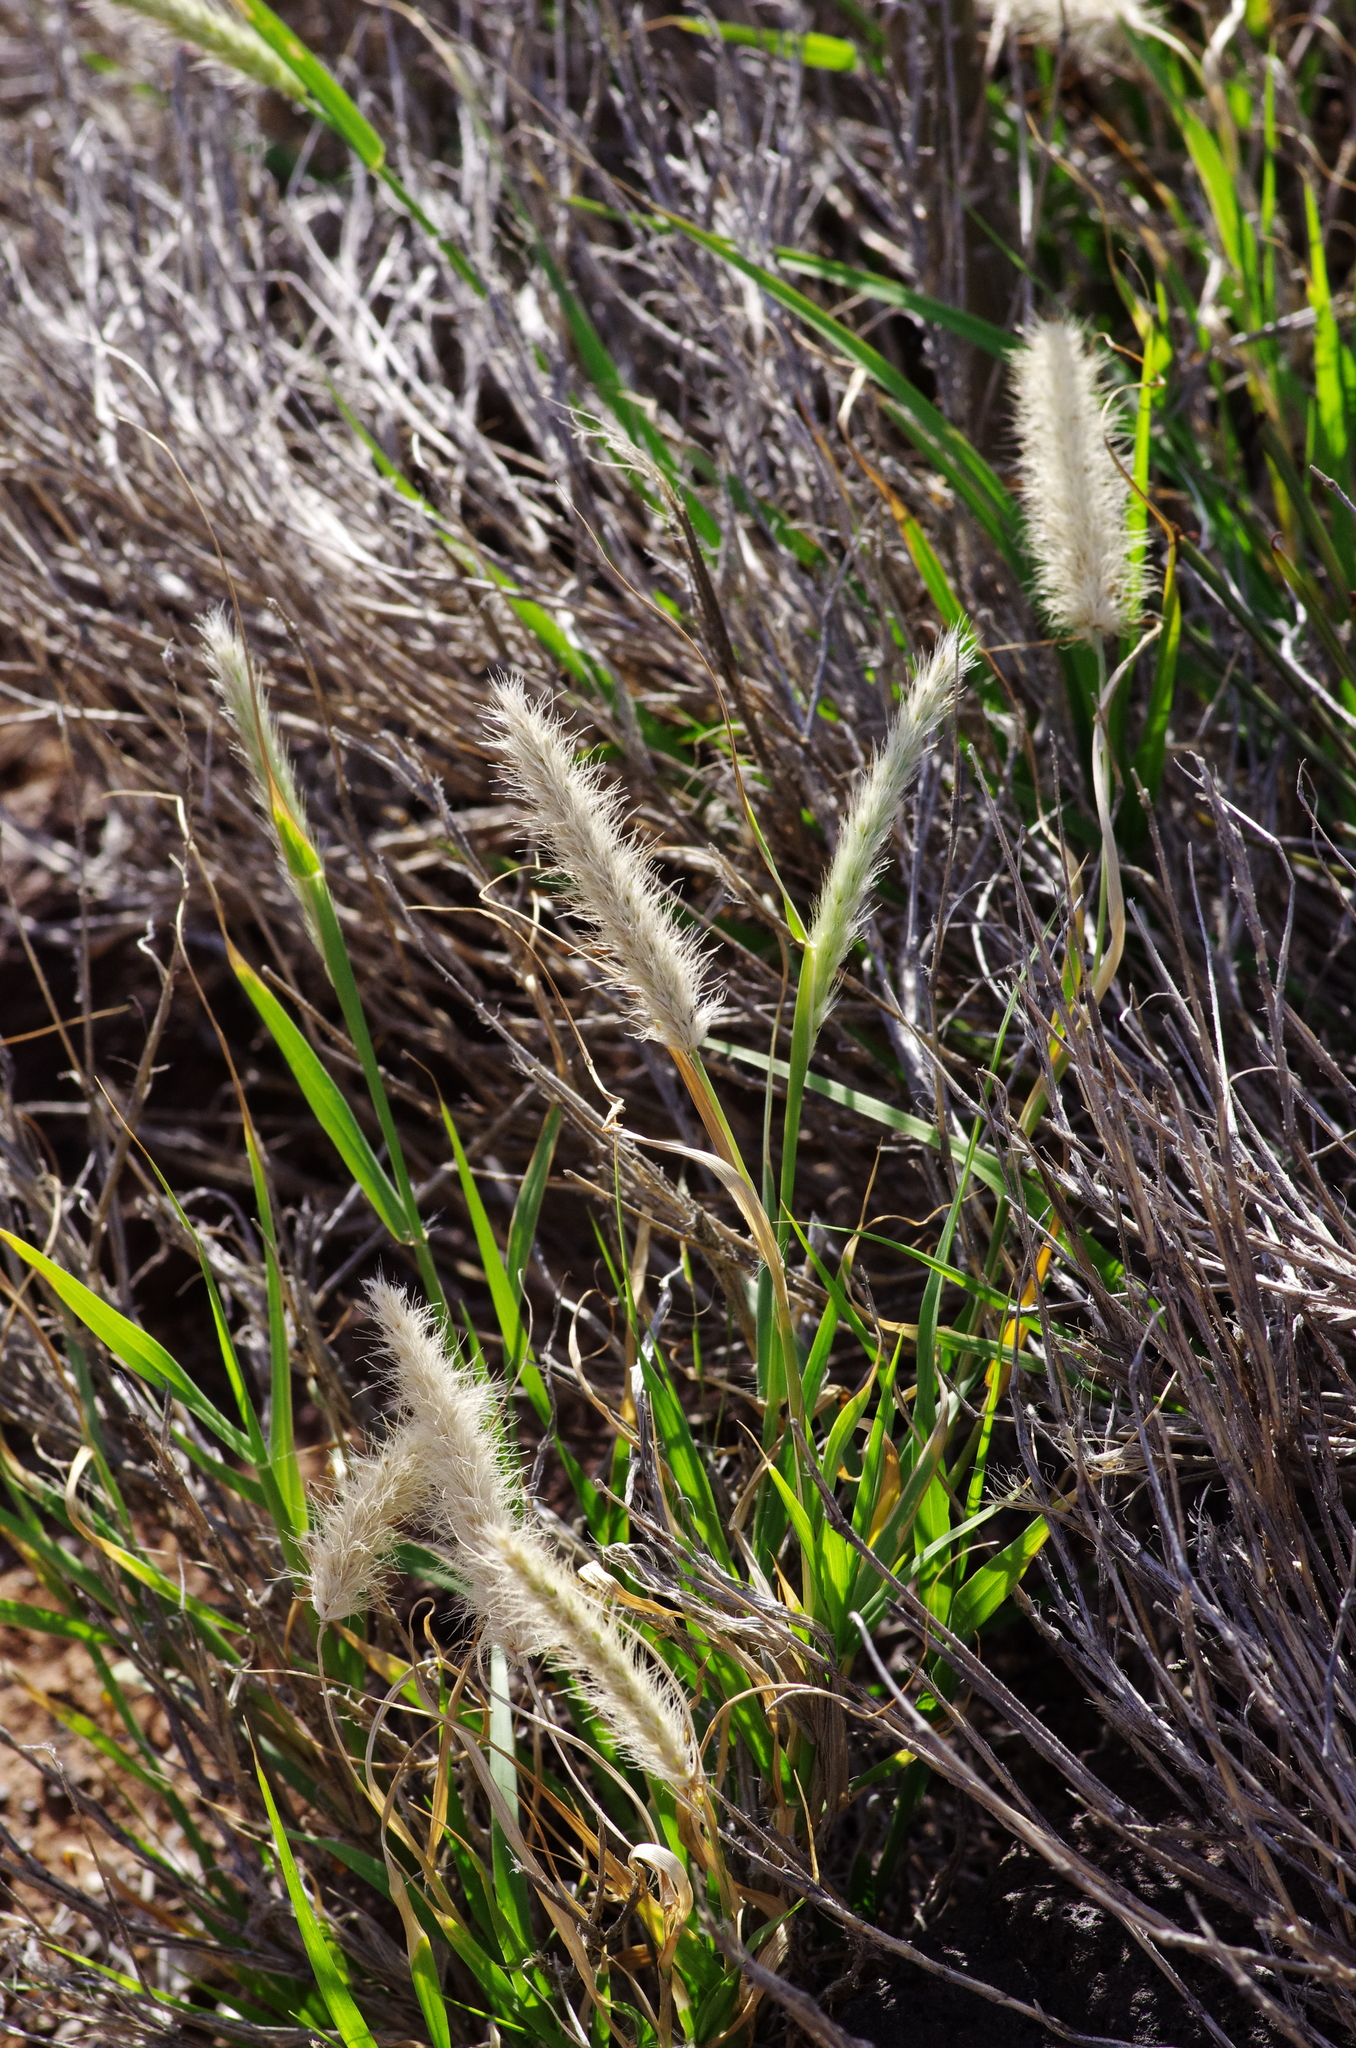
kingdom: Plantae
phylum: Tracheophyta
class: Liliopsida
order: Poales
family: Poaceae
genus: Cenchrus
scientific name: Cenchrus ciliaris
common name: Buffelgrass
